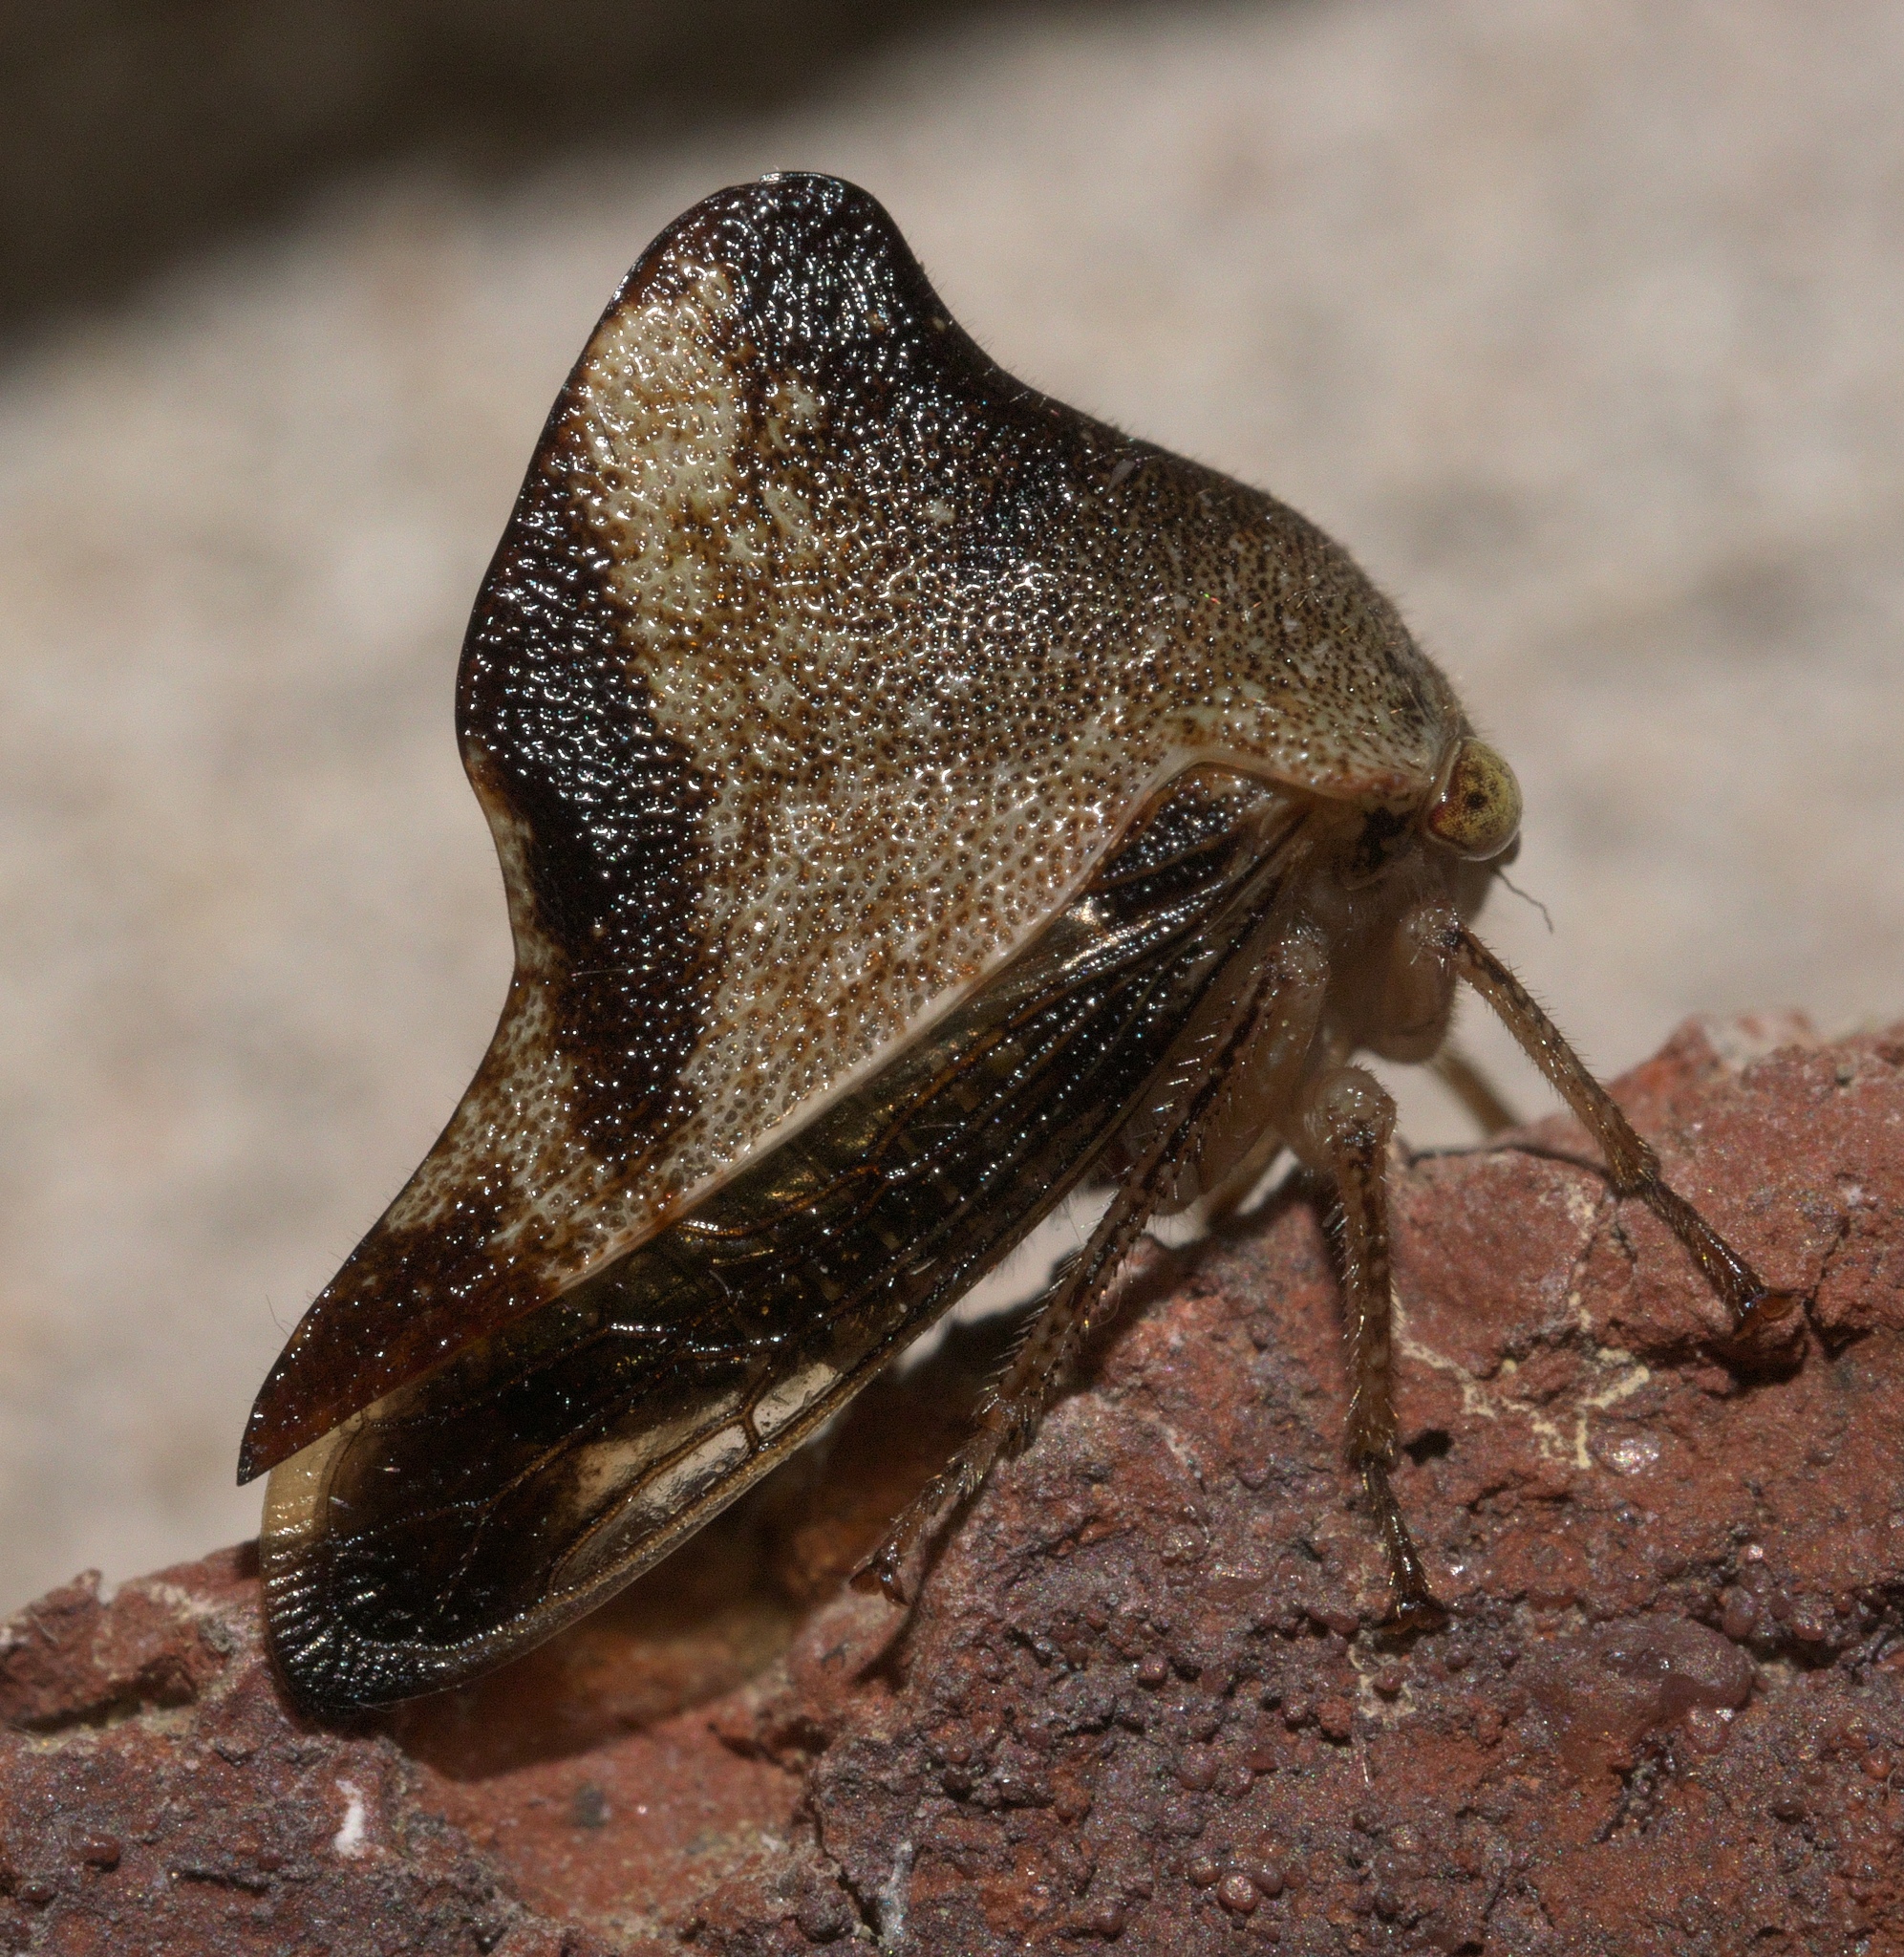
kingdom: Animalia
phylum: Arthropoda
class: Insecta
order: Hemiptera
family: Membracidae
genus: Helonica
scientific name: Helonica excelsa
